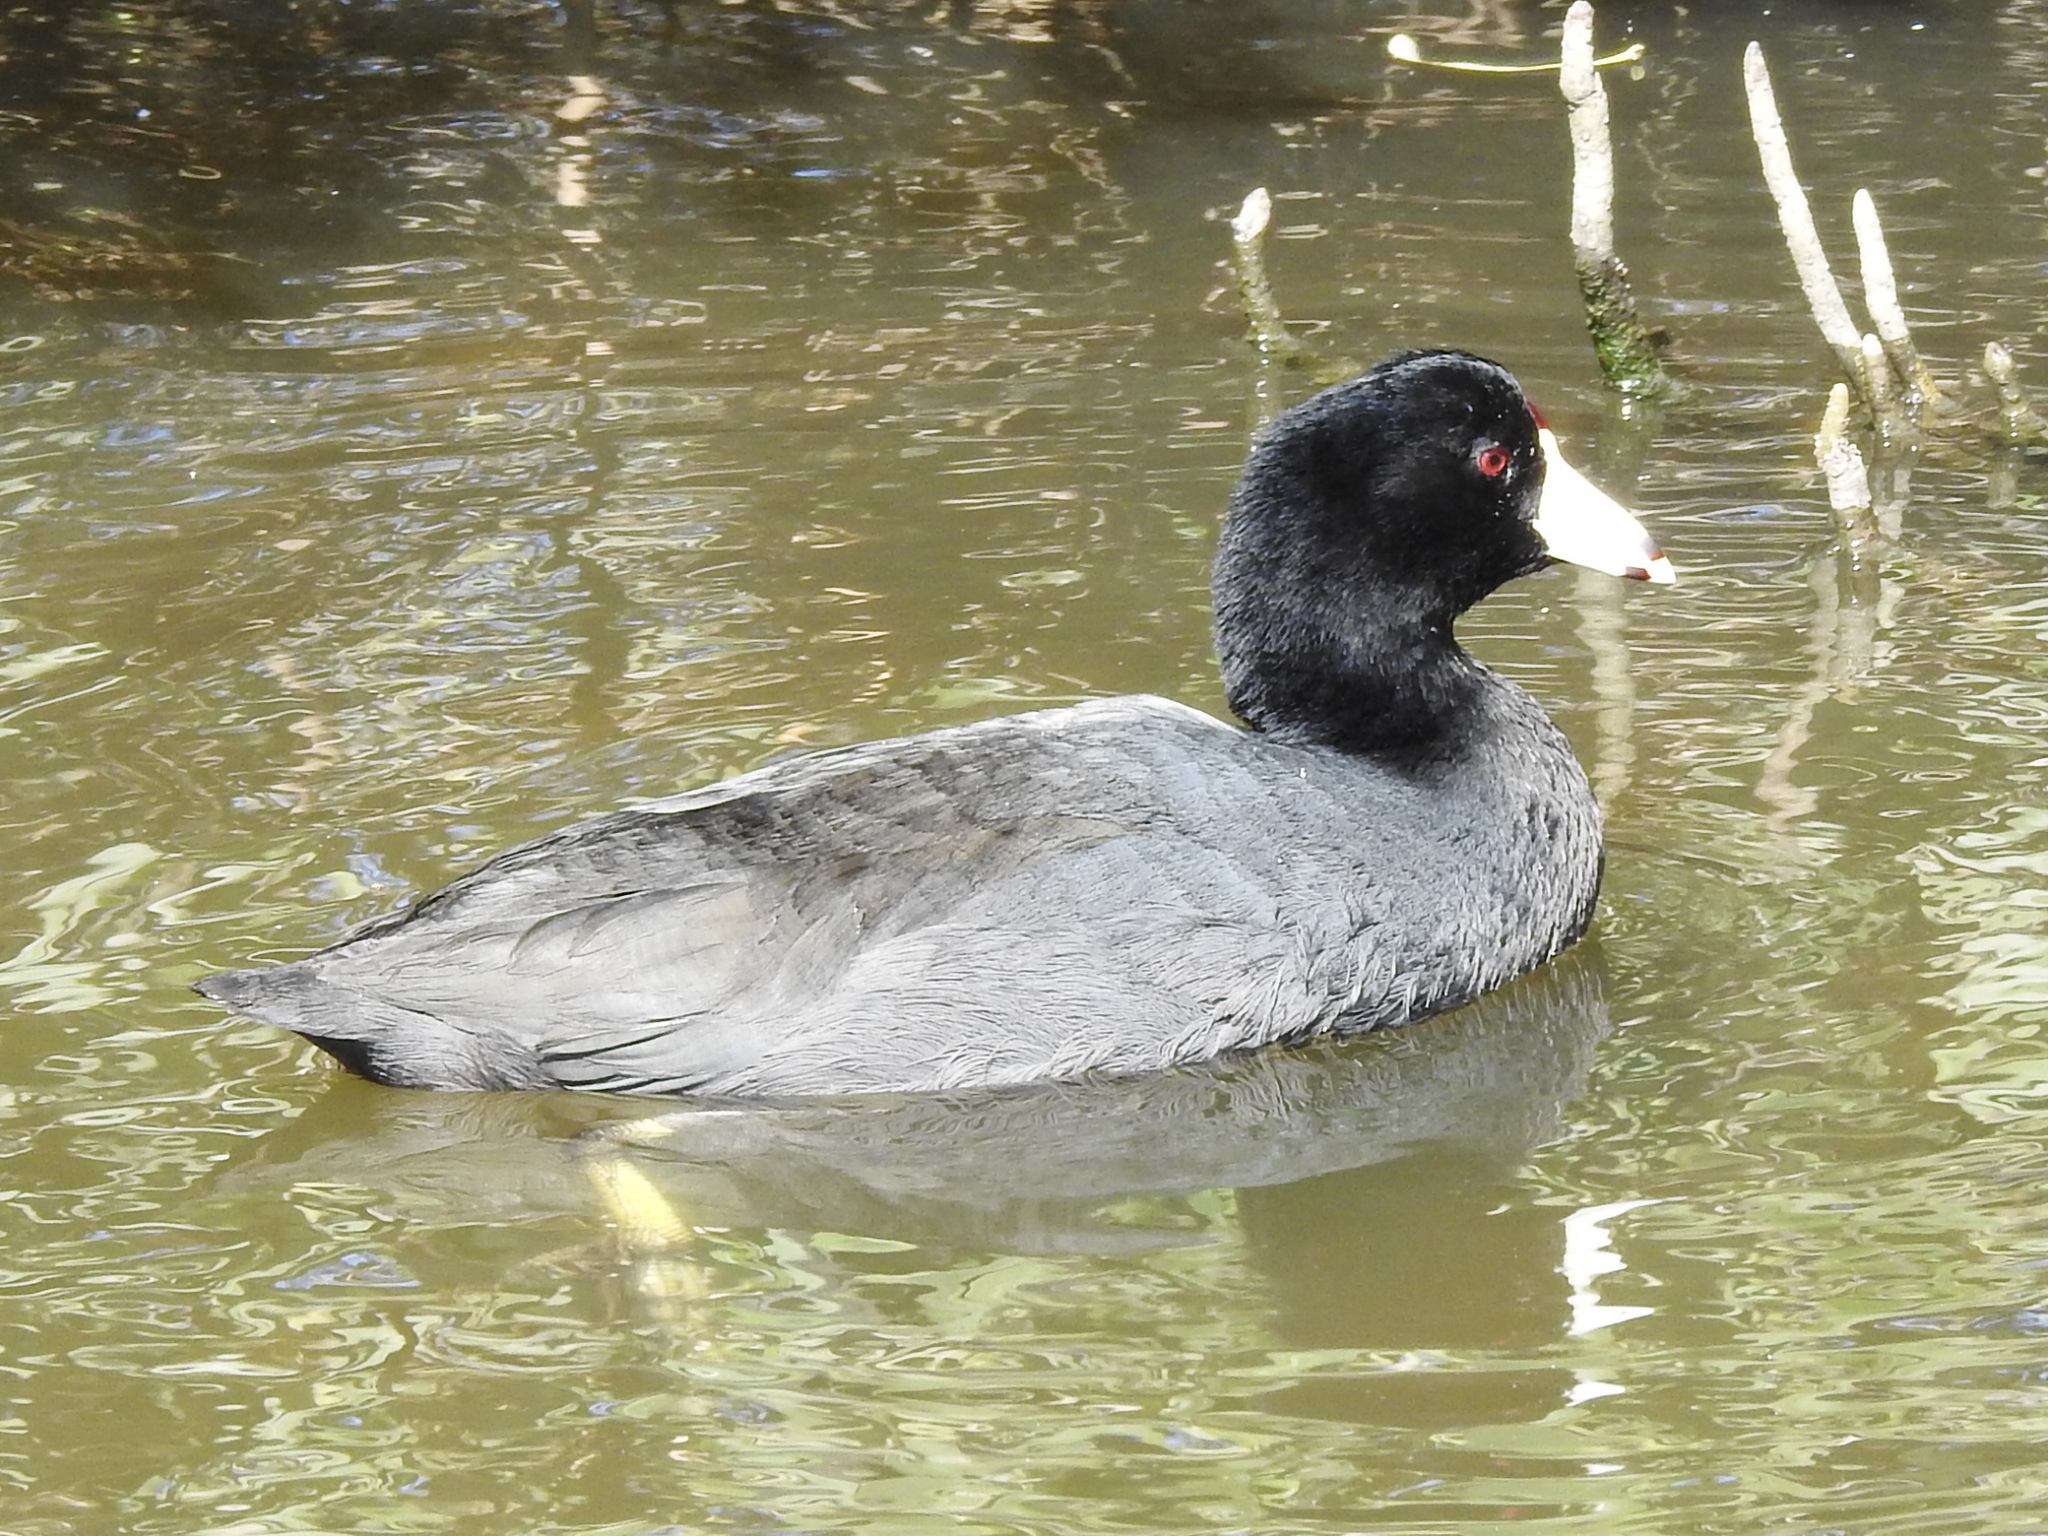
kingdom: Animalia
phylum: Chordata
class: Aves
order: Gruiformes
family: Rallidae
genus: Fulica
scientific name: Fulica americana
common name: American coot
